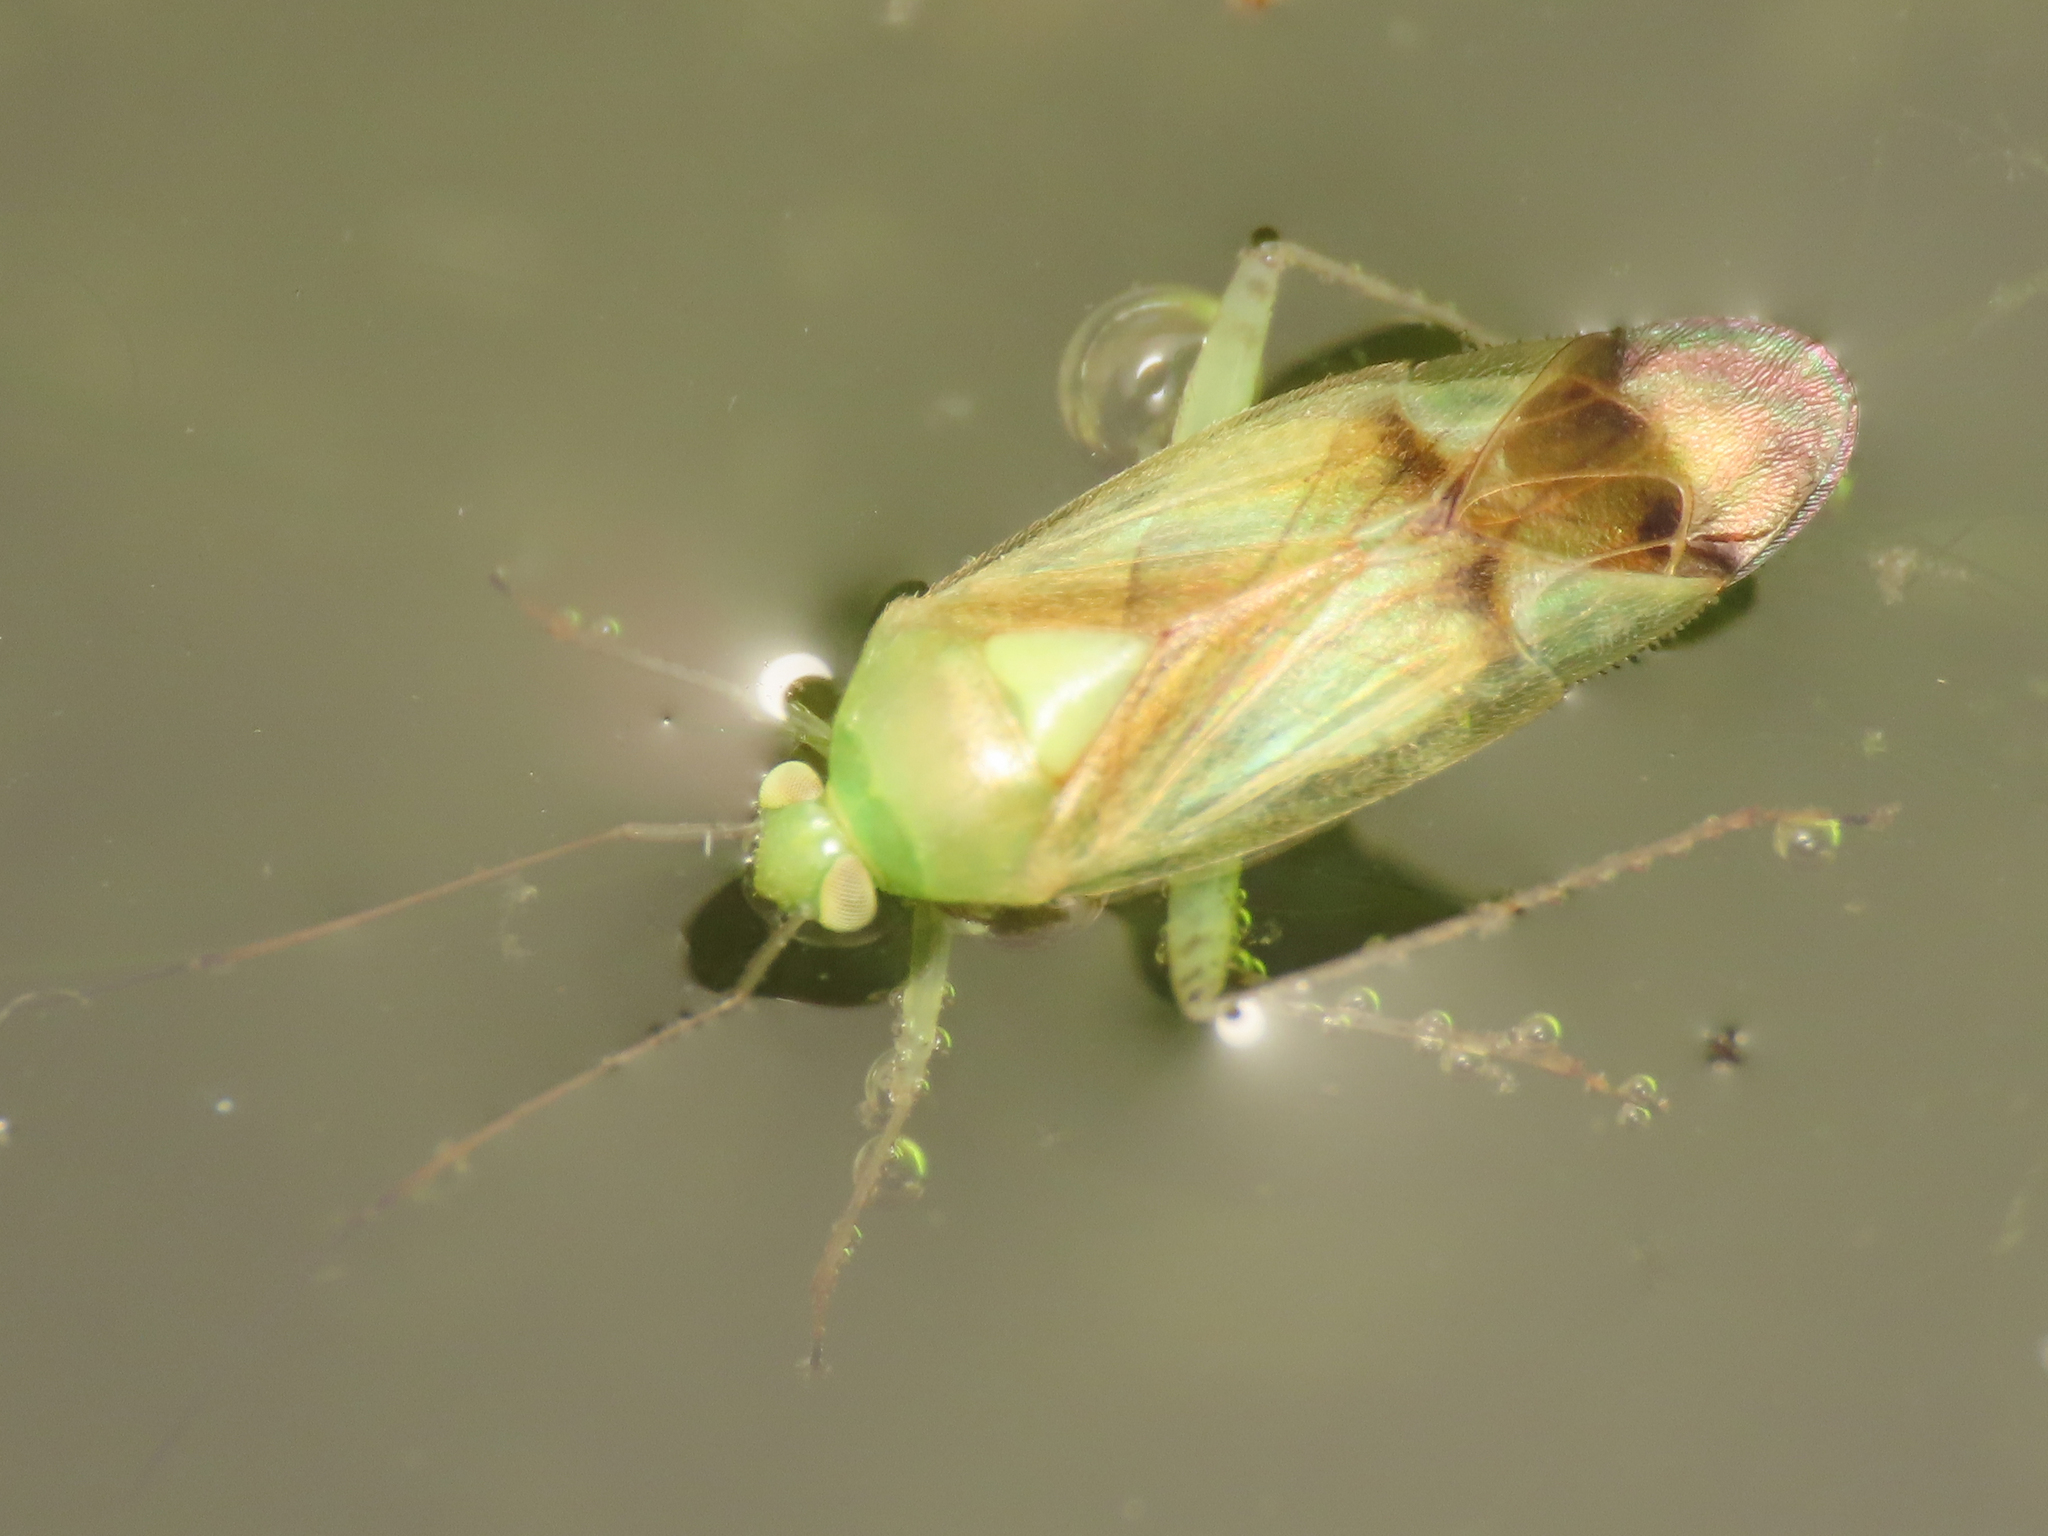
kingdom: Animalia
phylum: Arthropoda
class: Insecta
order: Hemiptera
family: Miridae
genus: Neolygus
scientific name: Neolygus viridis
